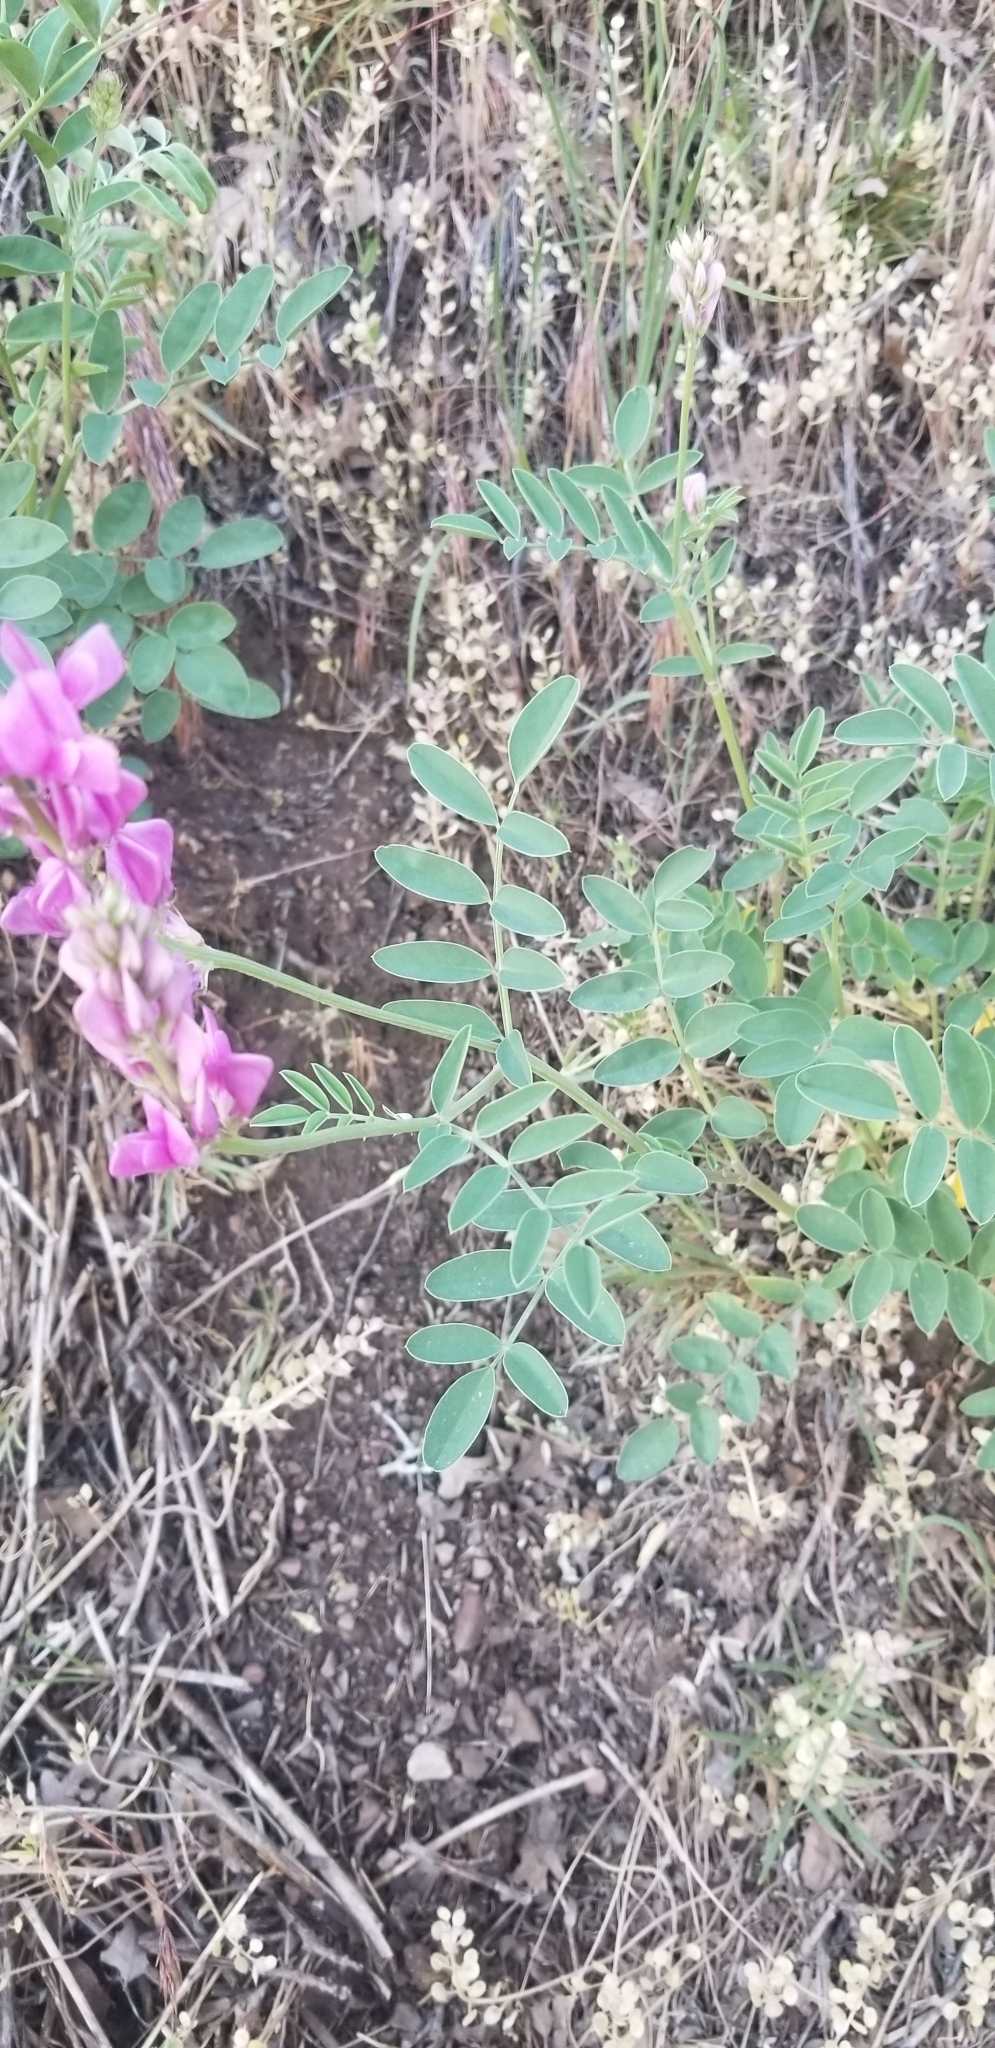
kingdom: Plantae
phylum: Tracheophyta
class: Magnoliopsida
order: Fabales
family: Fabaceae
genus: Hedysarum
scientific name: Hedysarum boreale
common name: Northern sweet-vetch
